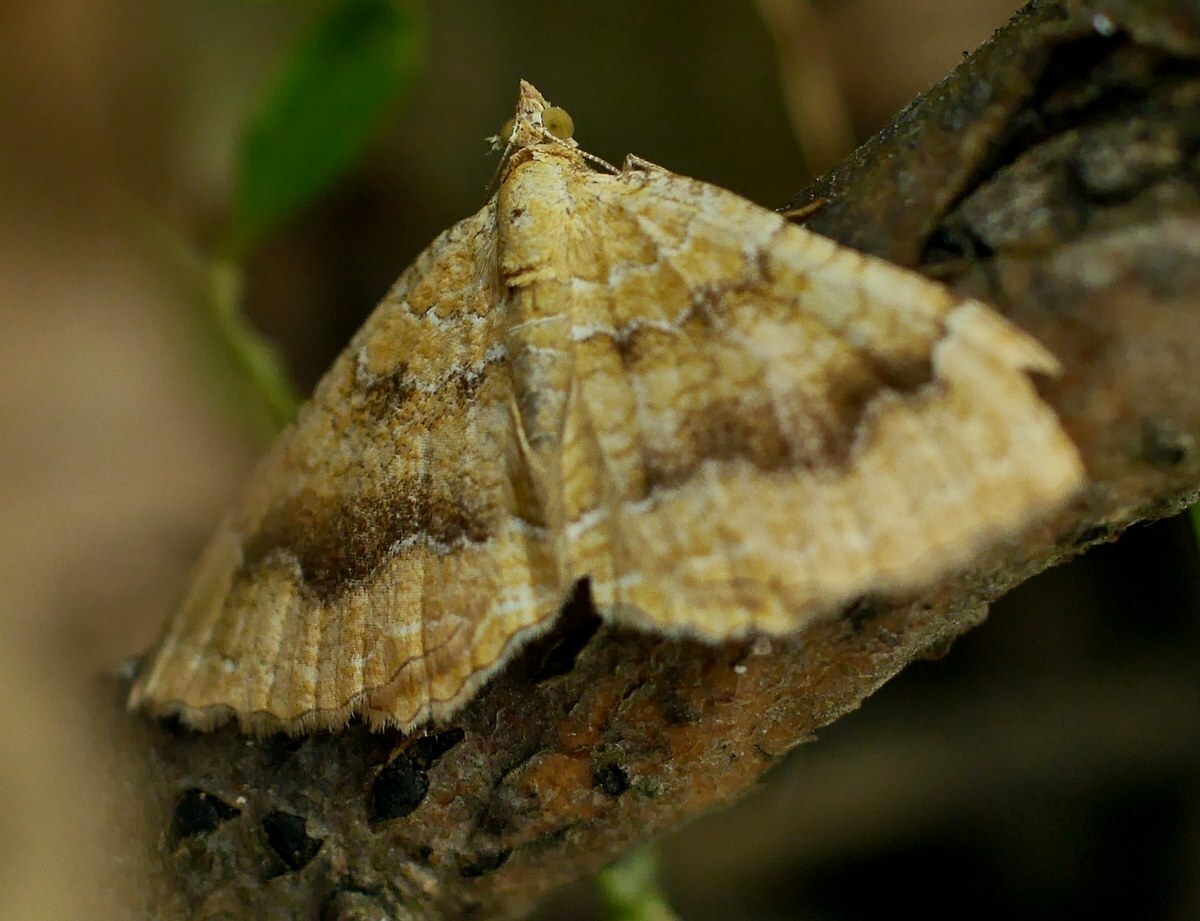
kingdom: Animalia
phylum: Arthropoda
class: Insecta
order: Lepidoptera
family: Geometridae
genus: Camptogramma
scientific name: Camptogramma bilineata
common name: Yellow shell
